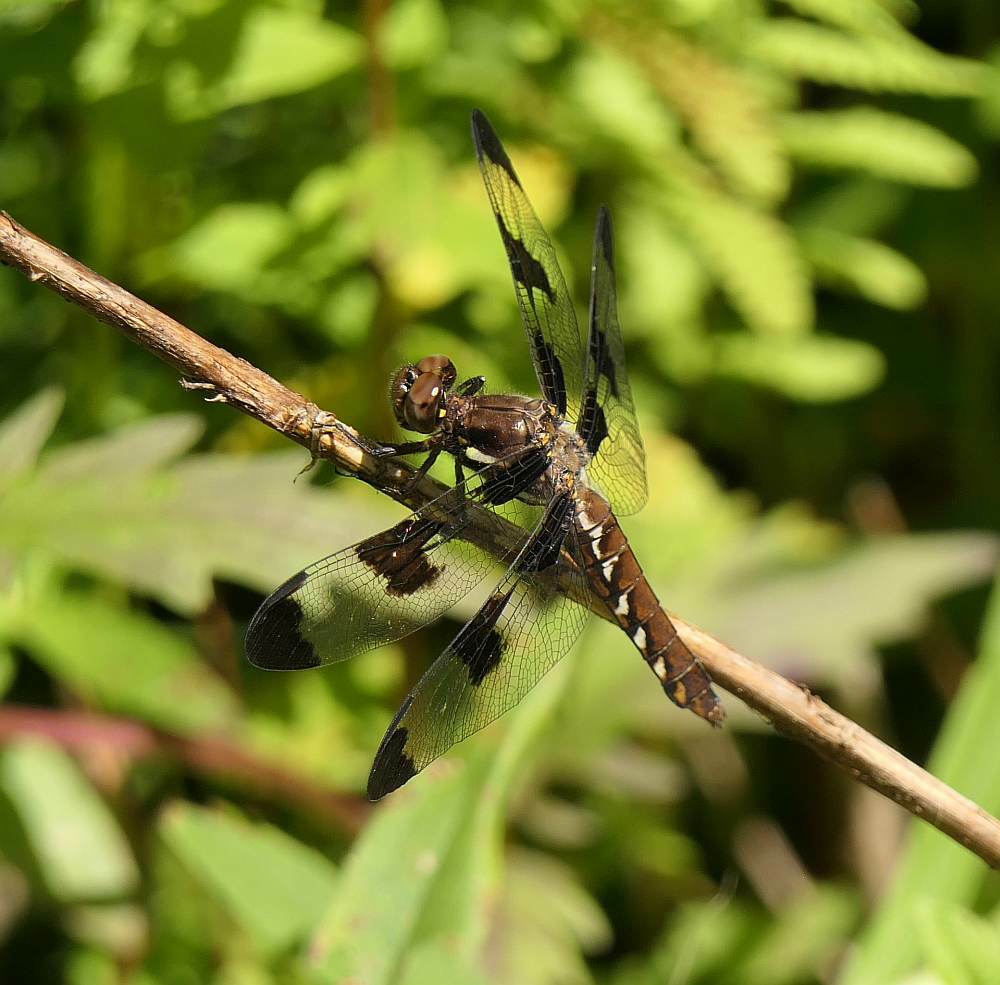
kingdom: Animalia
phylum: Arthropoda
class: Insecta
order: Odonata
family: Libellulidae
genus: Plathemis
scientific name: Plathemis lydia
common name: Common whitetail
